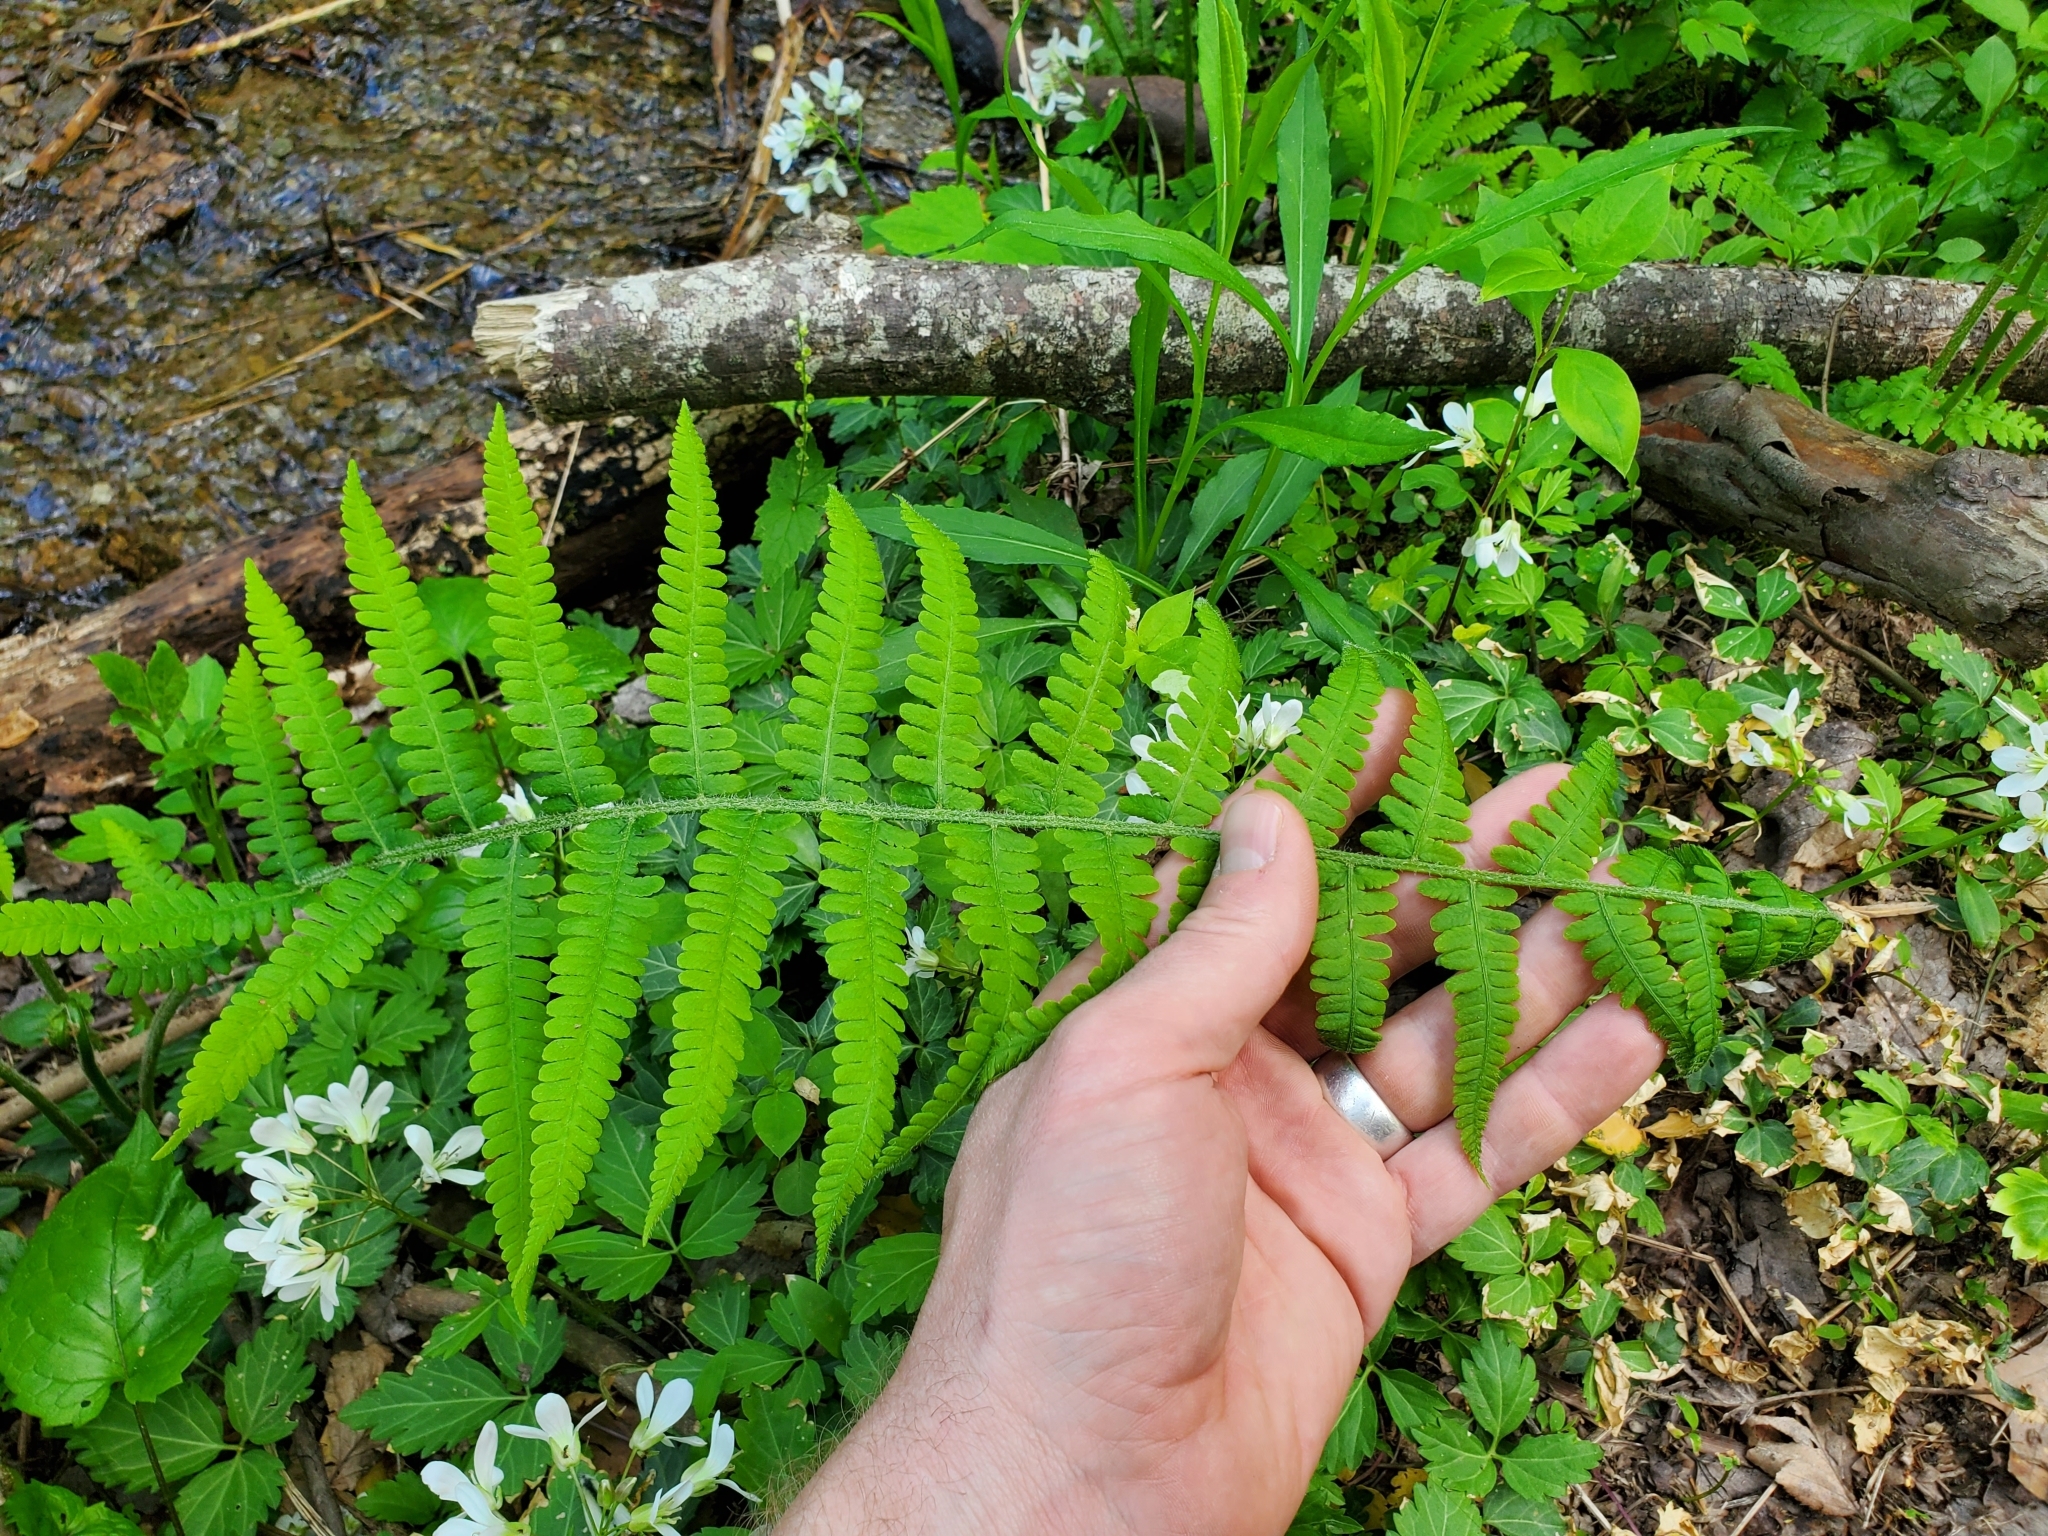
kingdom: Plantae
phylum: Tracheophyta
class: Polypodiopsida
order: Polypodiales
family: Athyriaceae
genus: Deparia
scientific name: Deparia acrostichoides
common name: Silver false spleenwort
